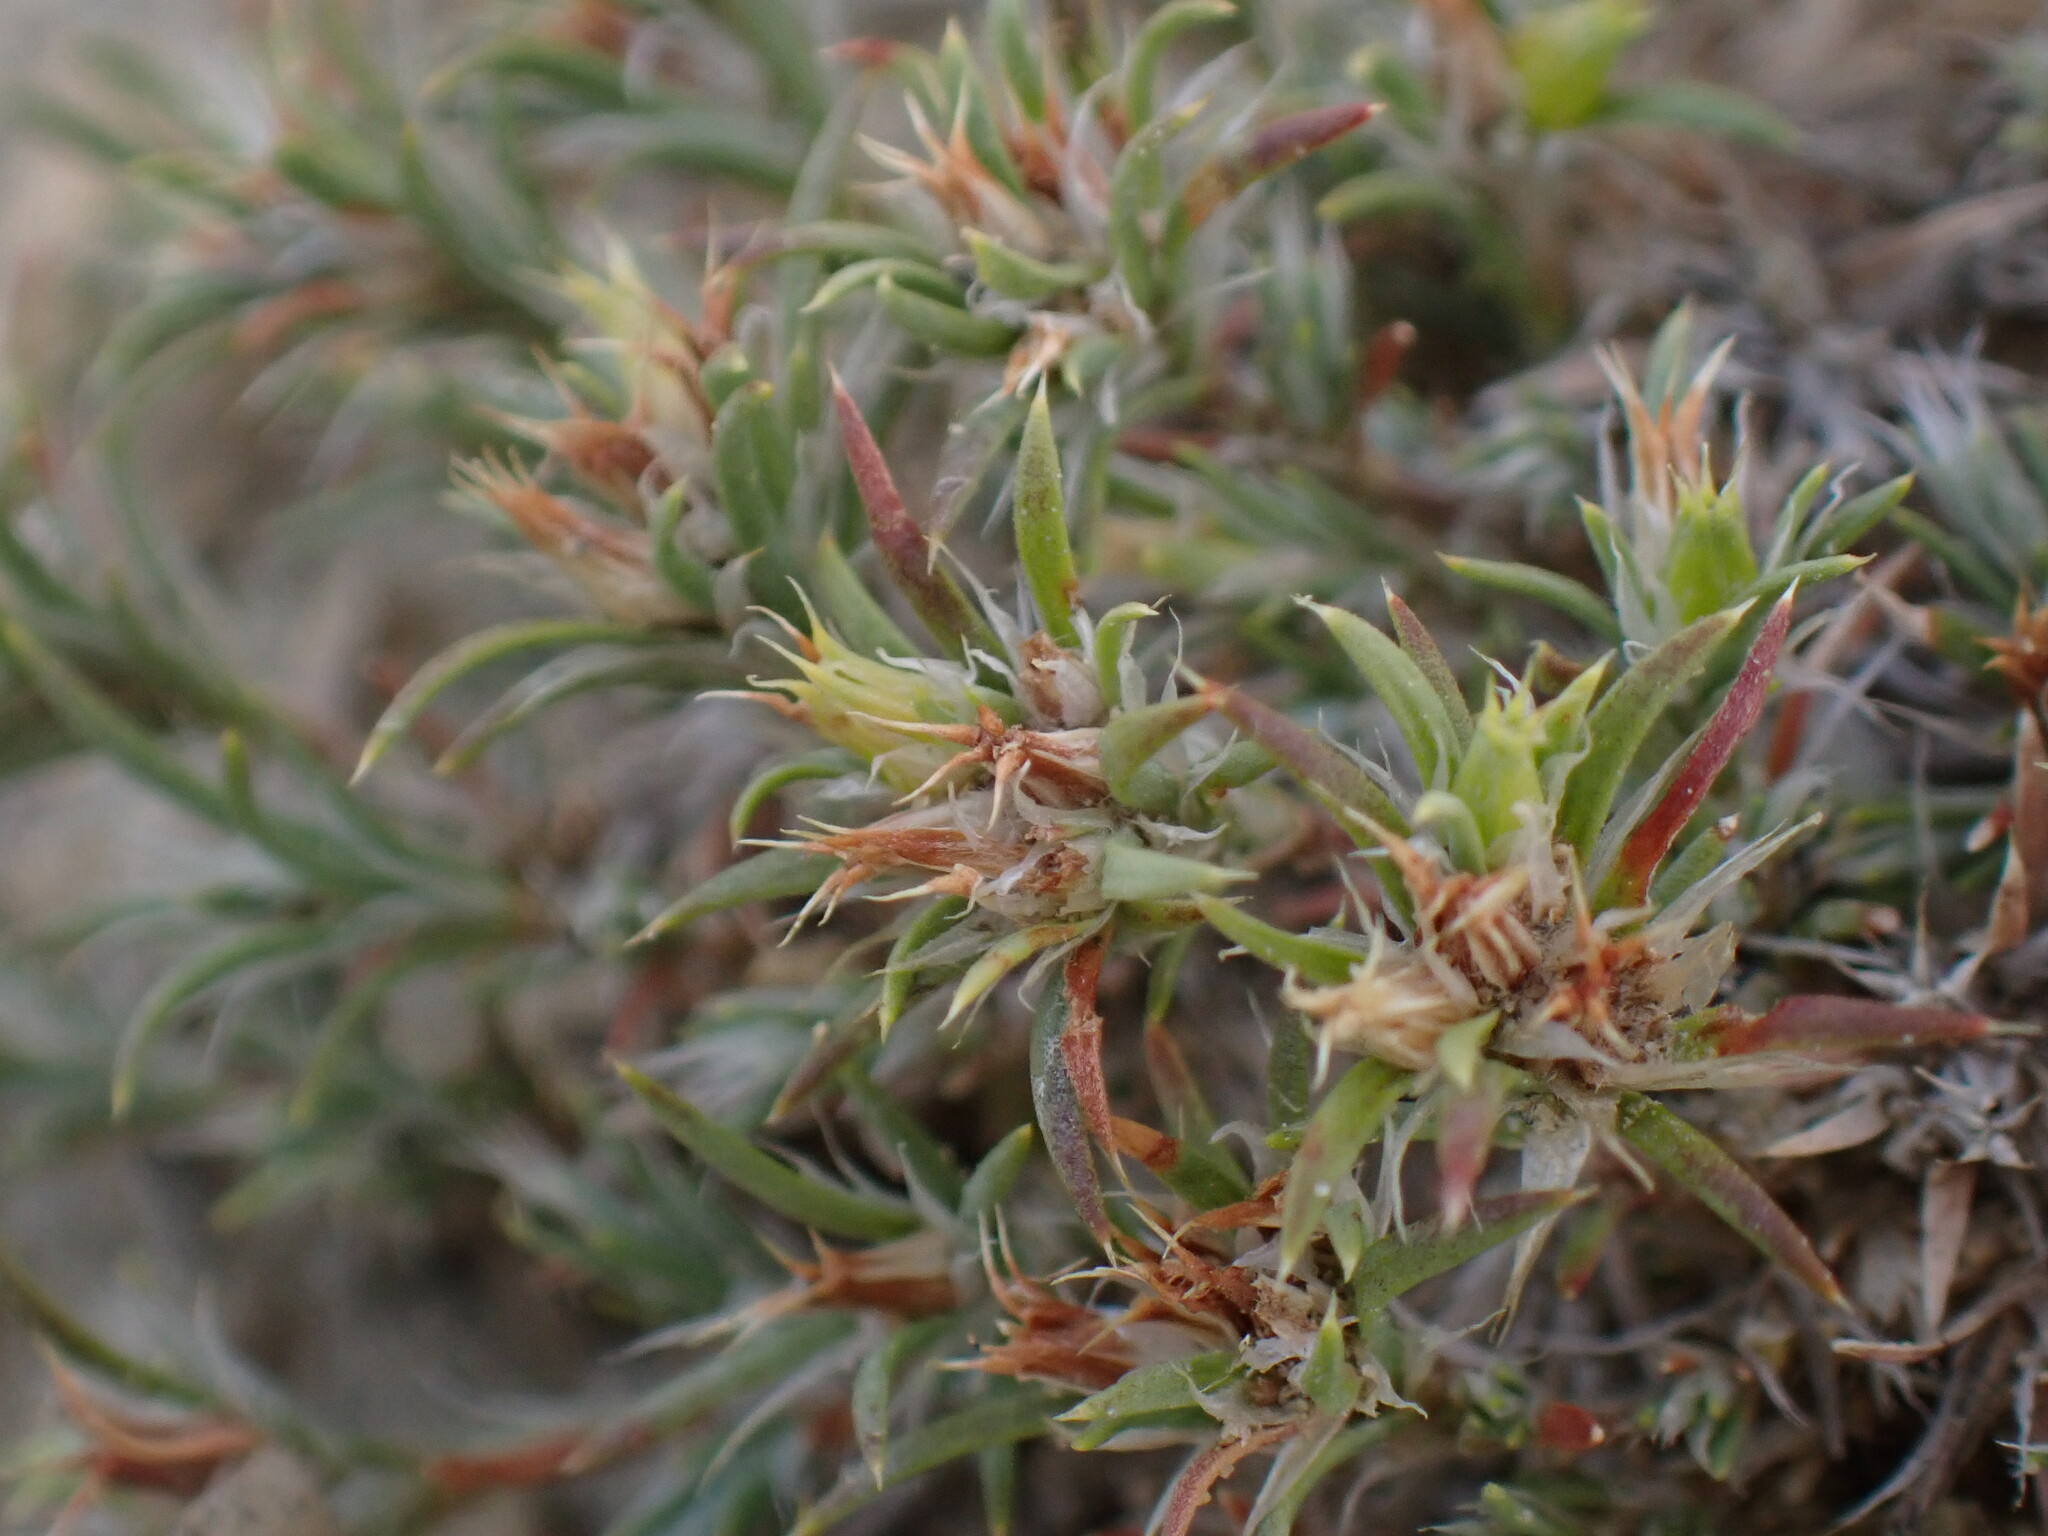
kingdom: Plantae
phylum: Tracheophyta
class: Magnoliopsida
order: Caryophyllales
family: Caryophyllaceae
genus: Paronychia
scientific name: Paronychia sessiliflora
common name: Creeping nailwort
